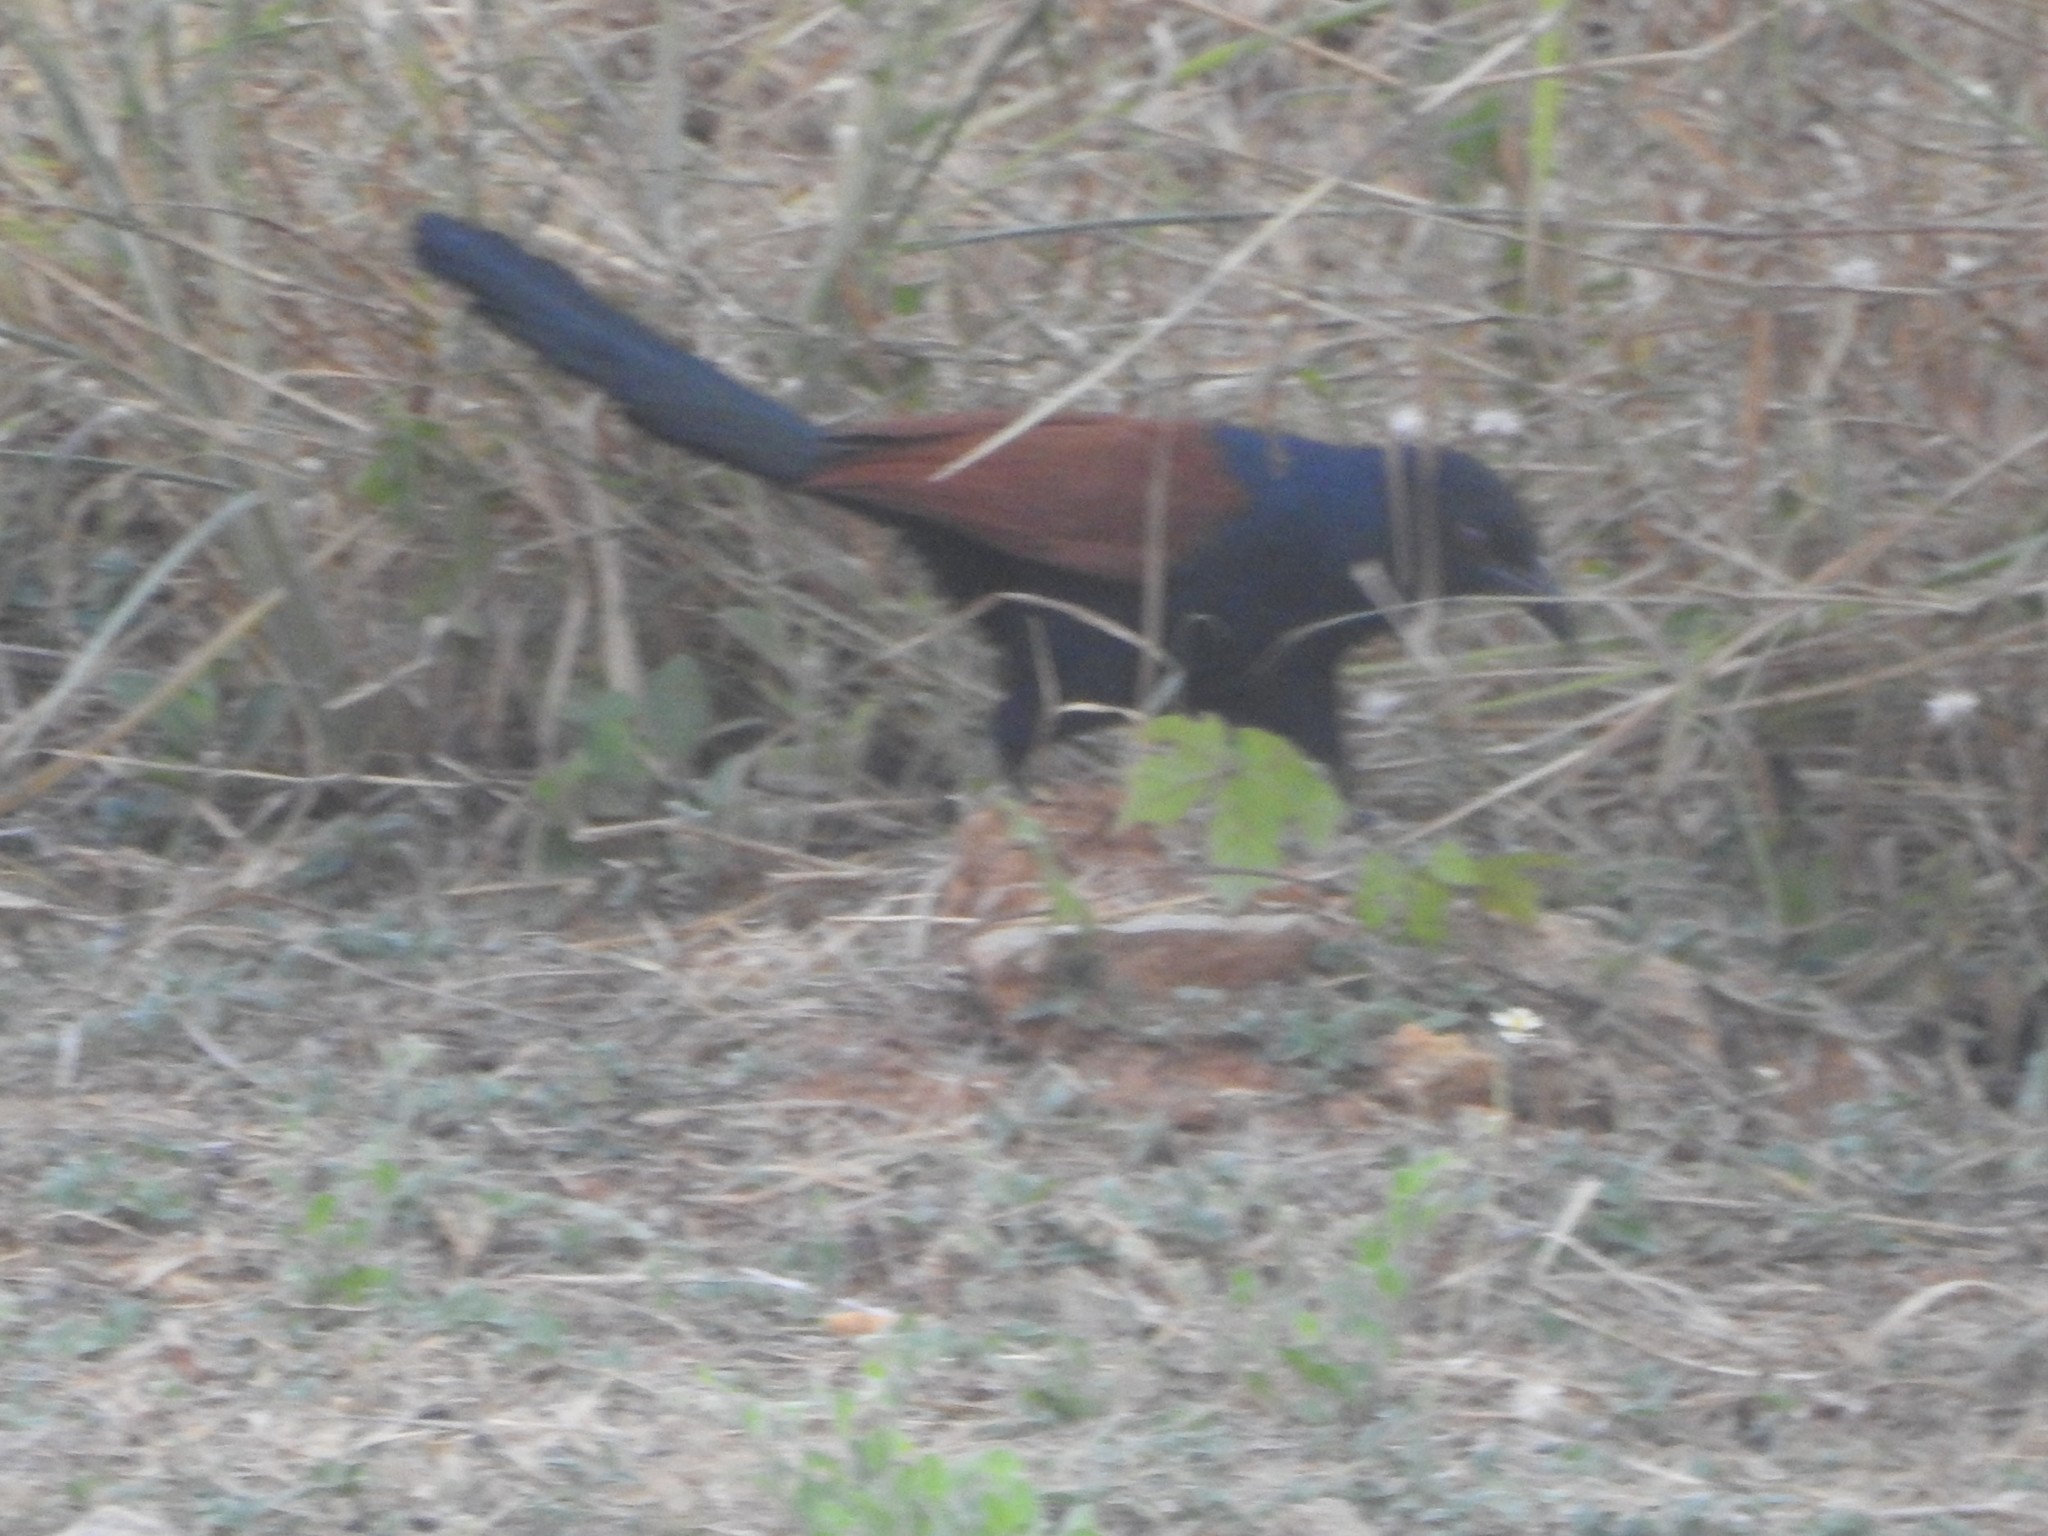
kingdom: Animalia
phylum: Chordata
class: Aves
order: Cuculiformes
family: Cuculidae
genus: Centropus
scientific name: Centropus sinensis
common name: Greater coucal
